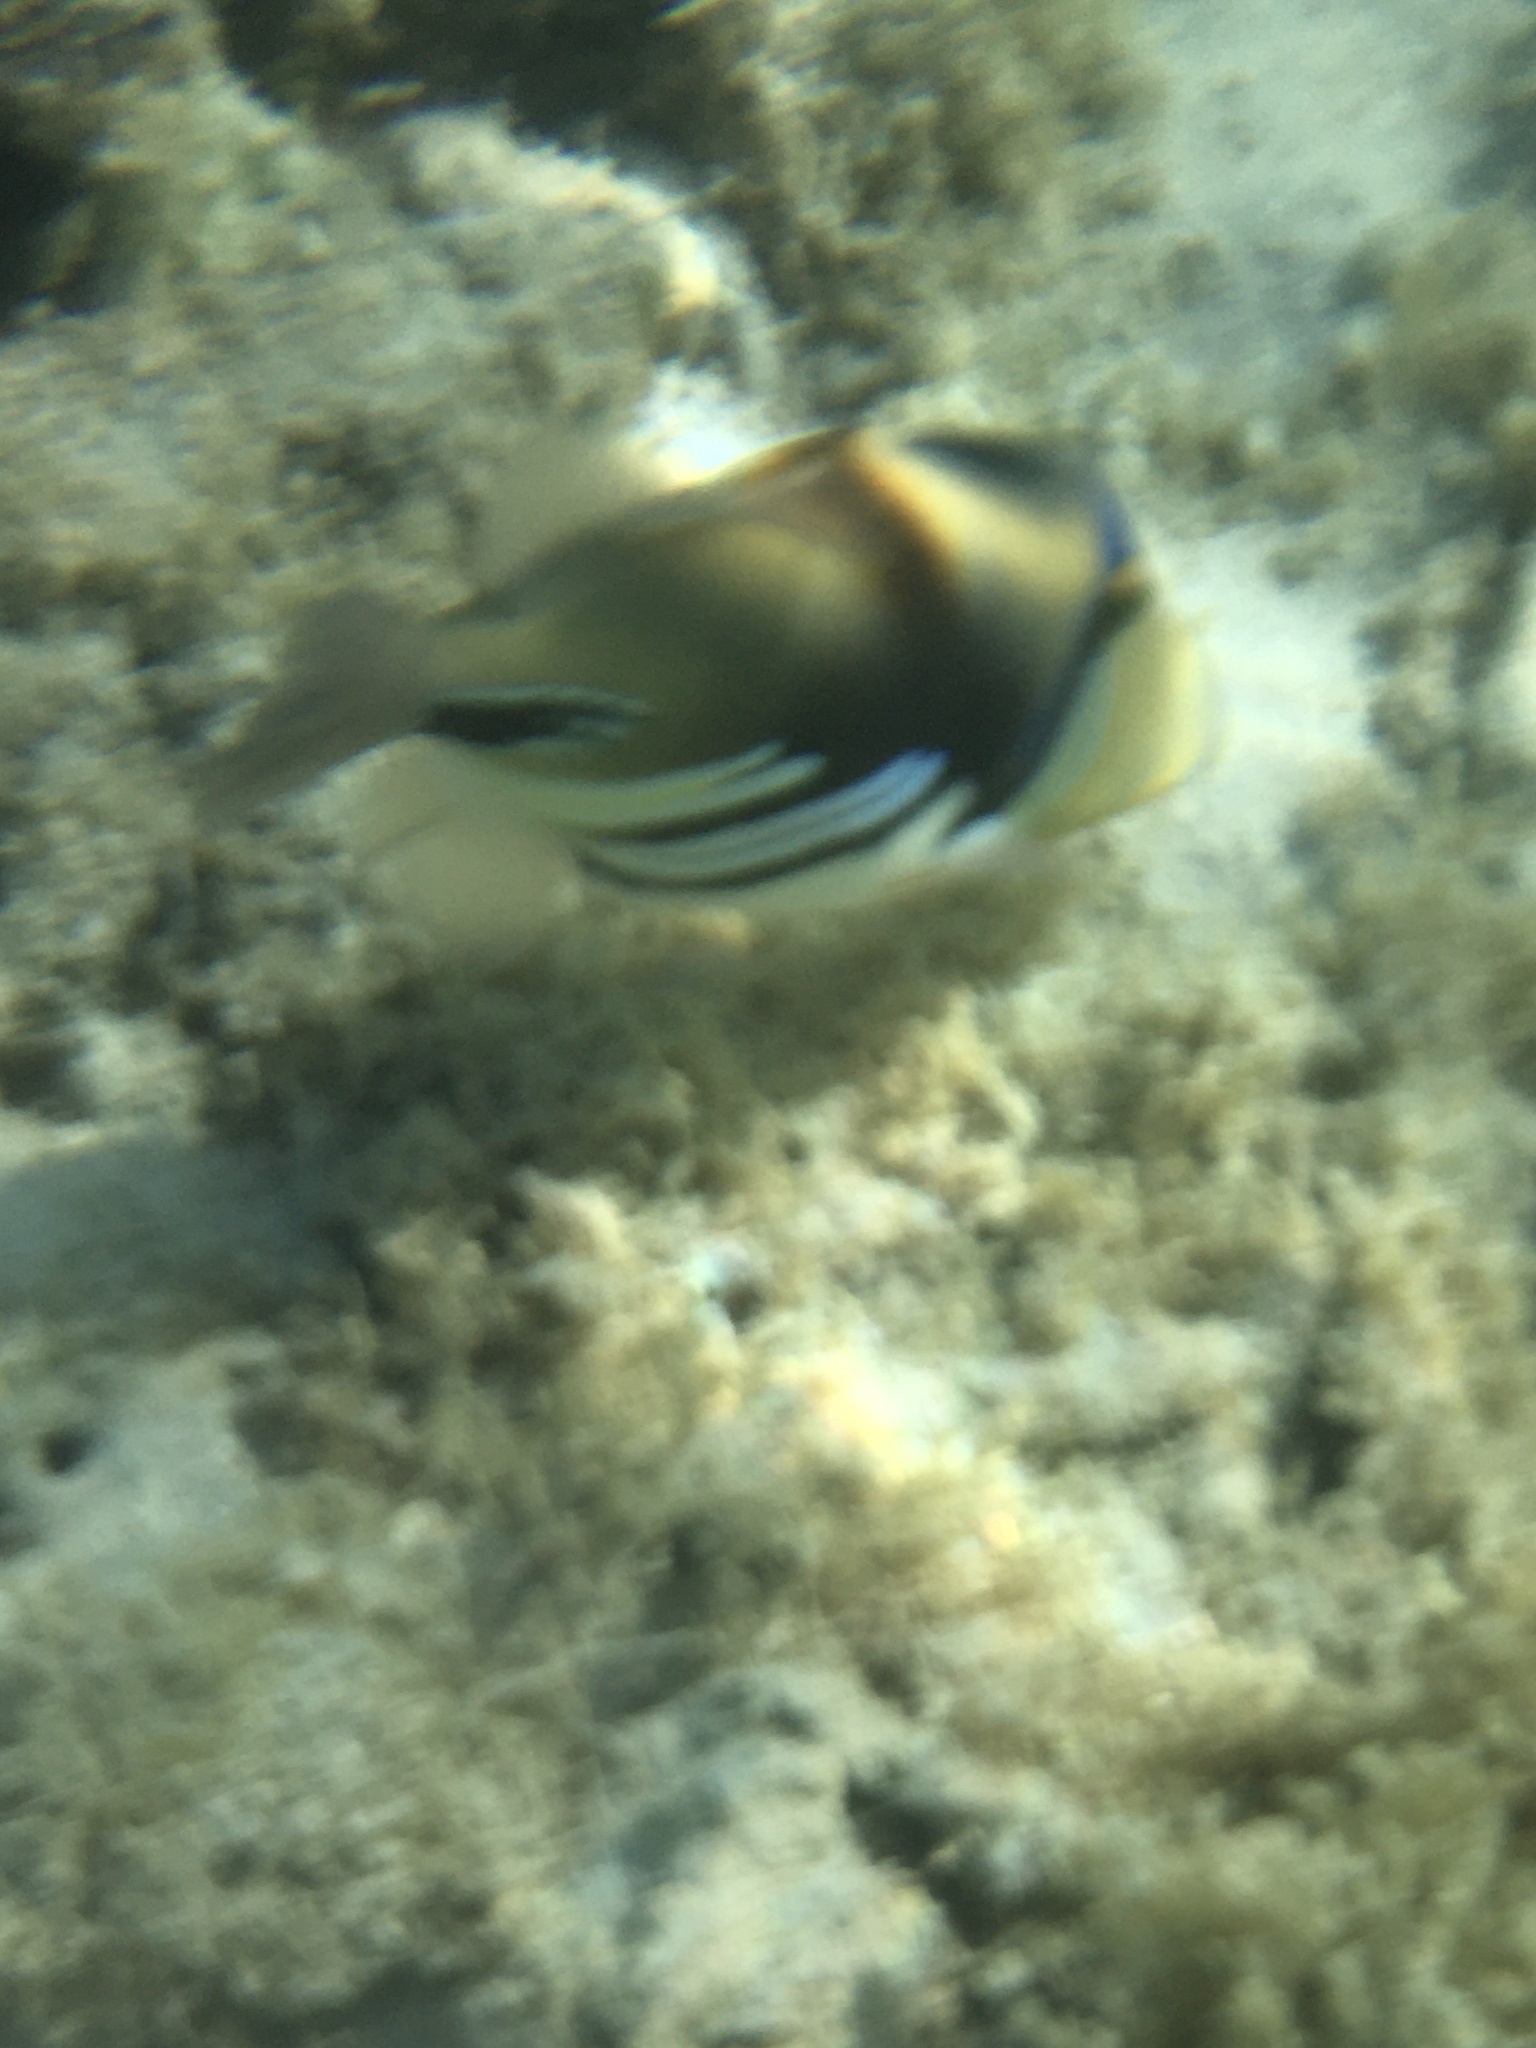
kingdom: Animalia
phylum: Chordata
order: Tetraodontiformes
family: Balistidae
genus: Rhinecanthus
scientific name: Rhinecanthus aculeatus
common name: White-banded triggerfish
